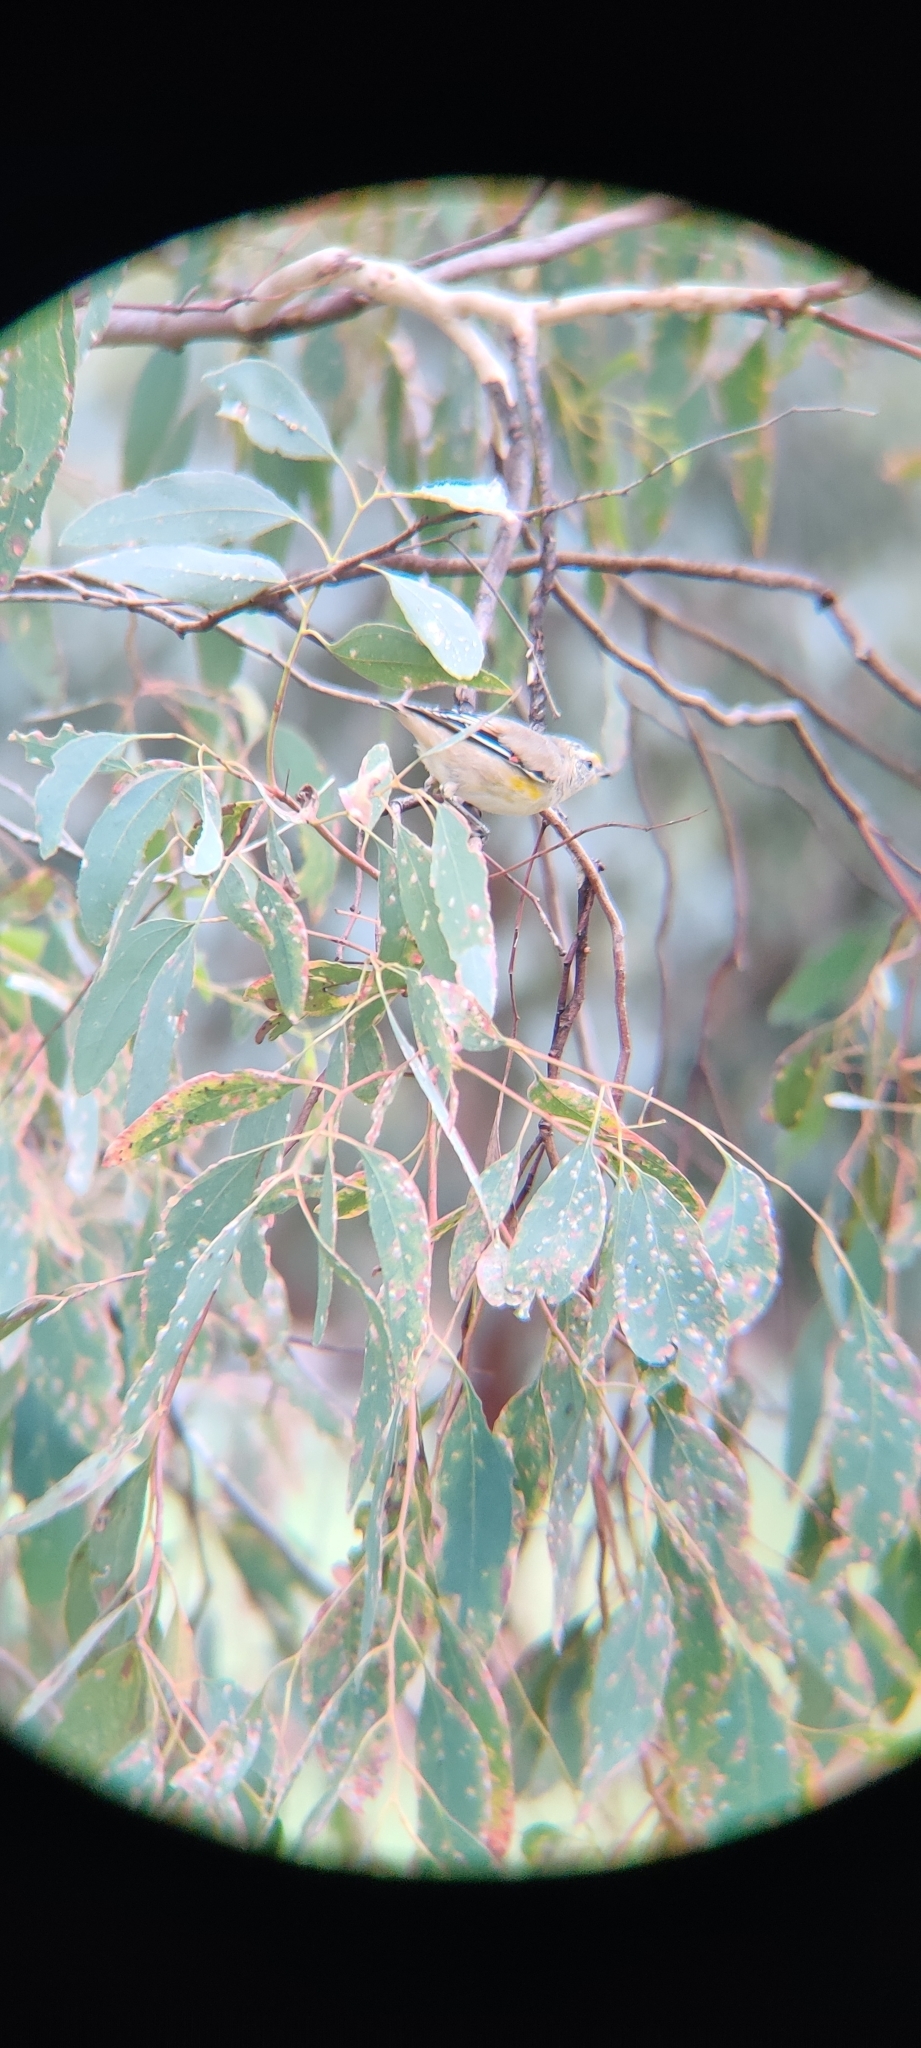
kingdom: Animalia
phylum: Chordata
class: Aves
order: Passeriformes
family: Pardalotidae
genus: Pardalotus
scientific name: Pardalotus striatus
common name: Striated pardalote
